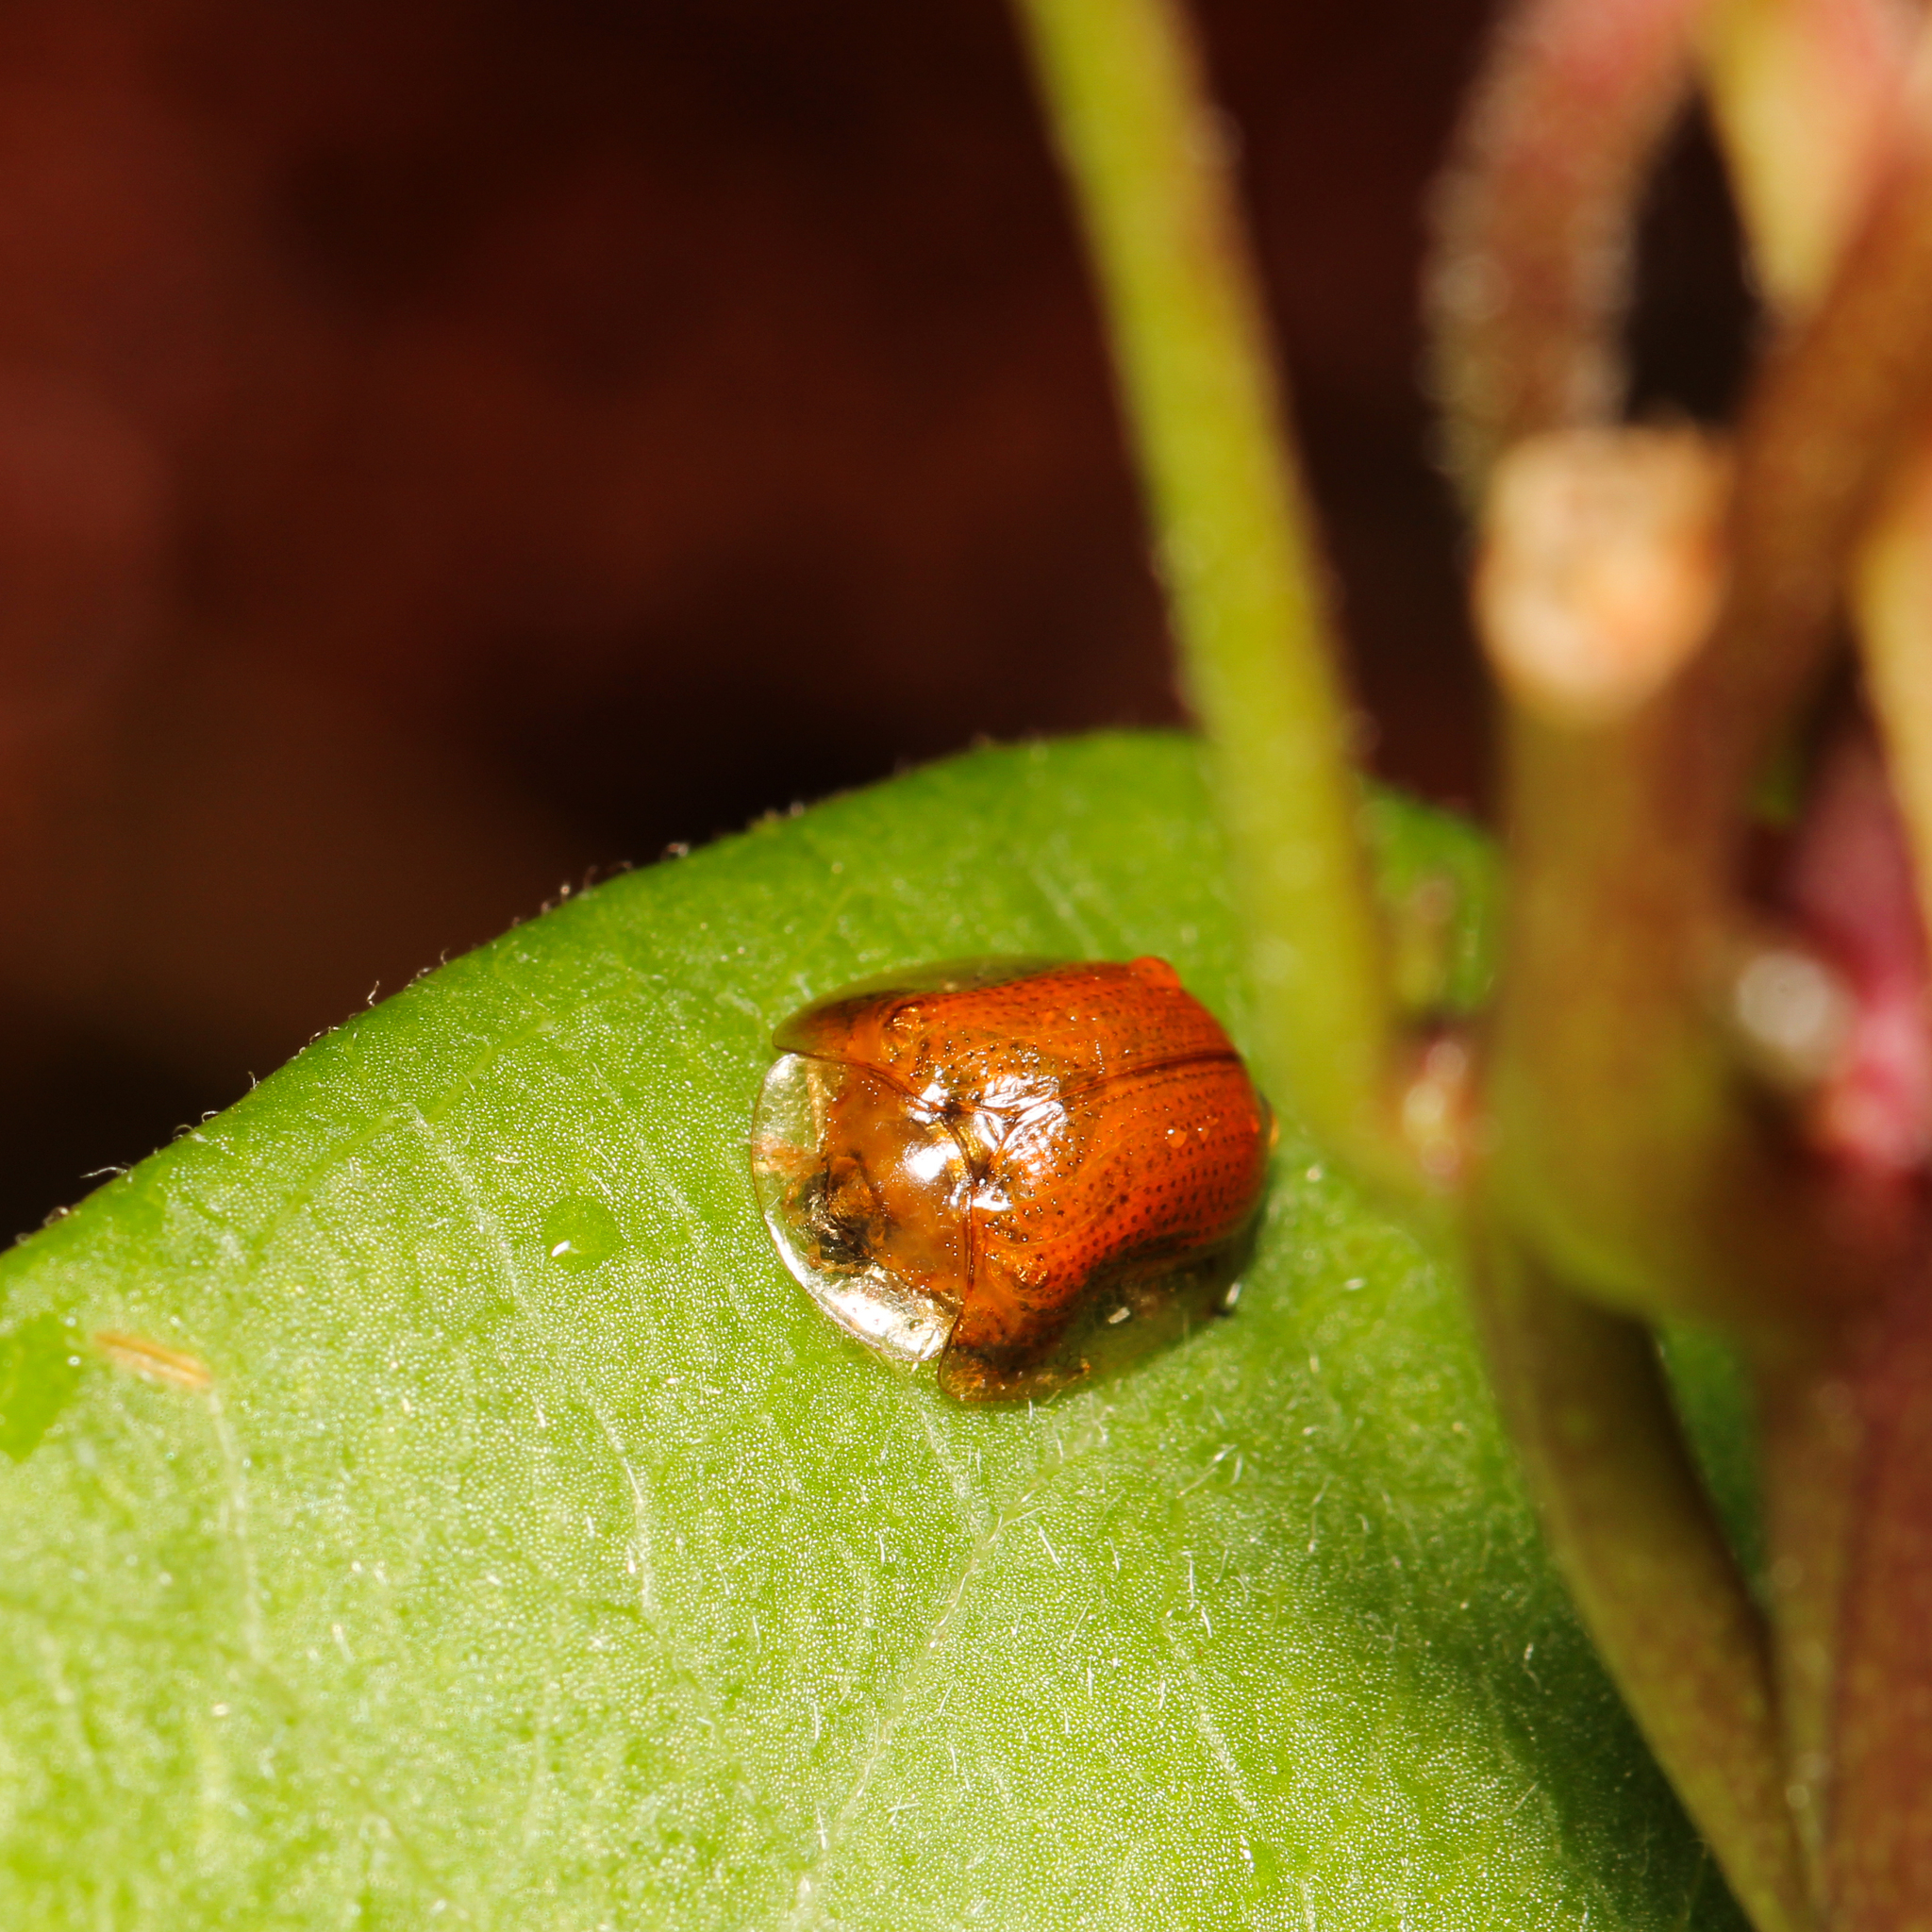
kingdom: Animalia
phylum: Arthropoda
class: Insecta
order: Coleoptera
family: Chrysomelidae
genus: Charidotella
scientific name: Charidotella sexpunctata
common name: Golden tortoise beetle
